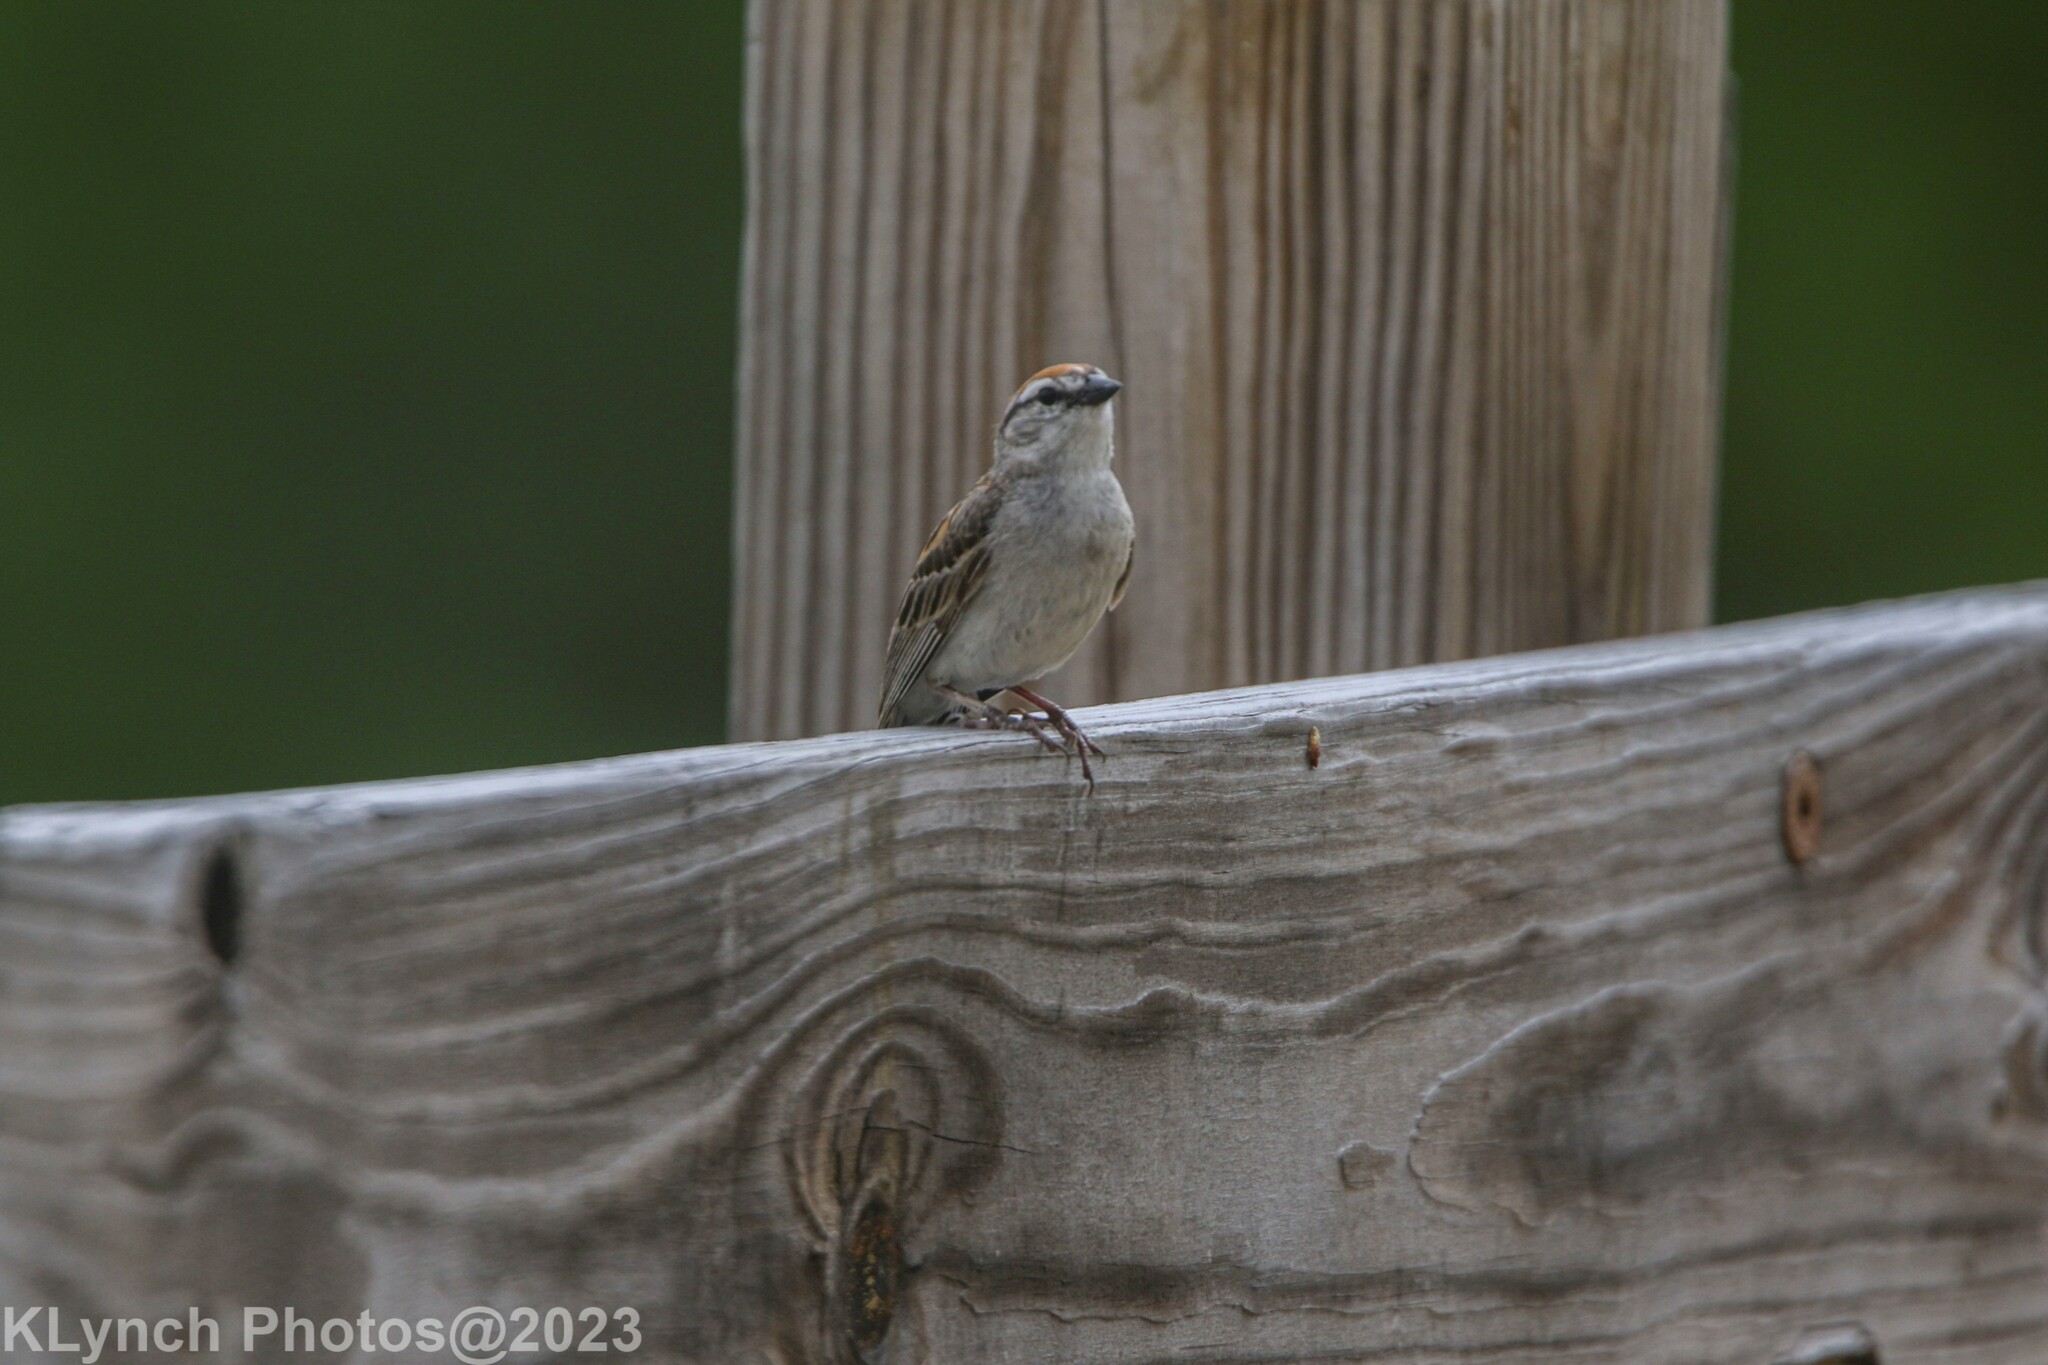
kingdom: Animalia
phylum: Chordata
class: Aves
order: Passeriformes
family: Passerellidae
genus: Spizella
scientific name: Spizella passerina
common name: Chipping sparrow
